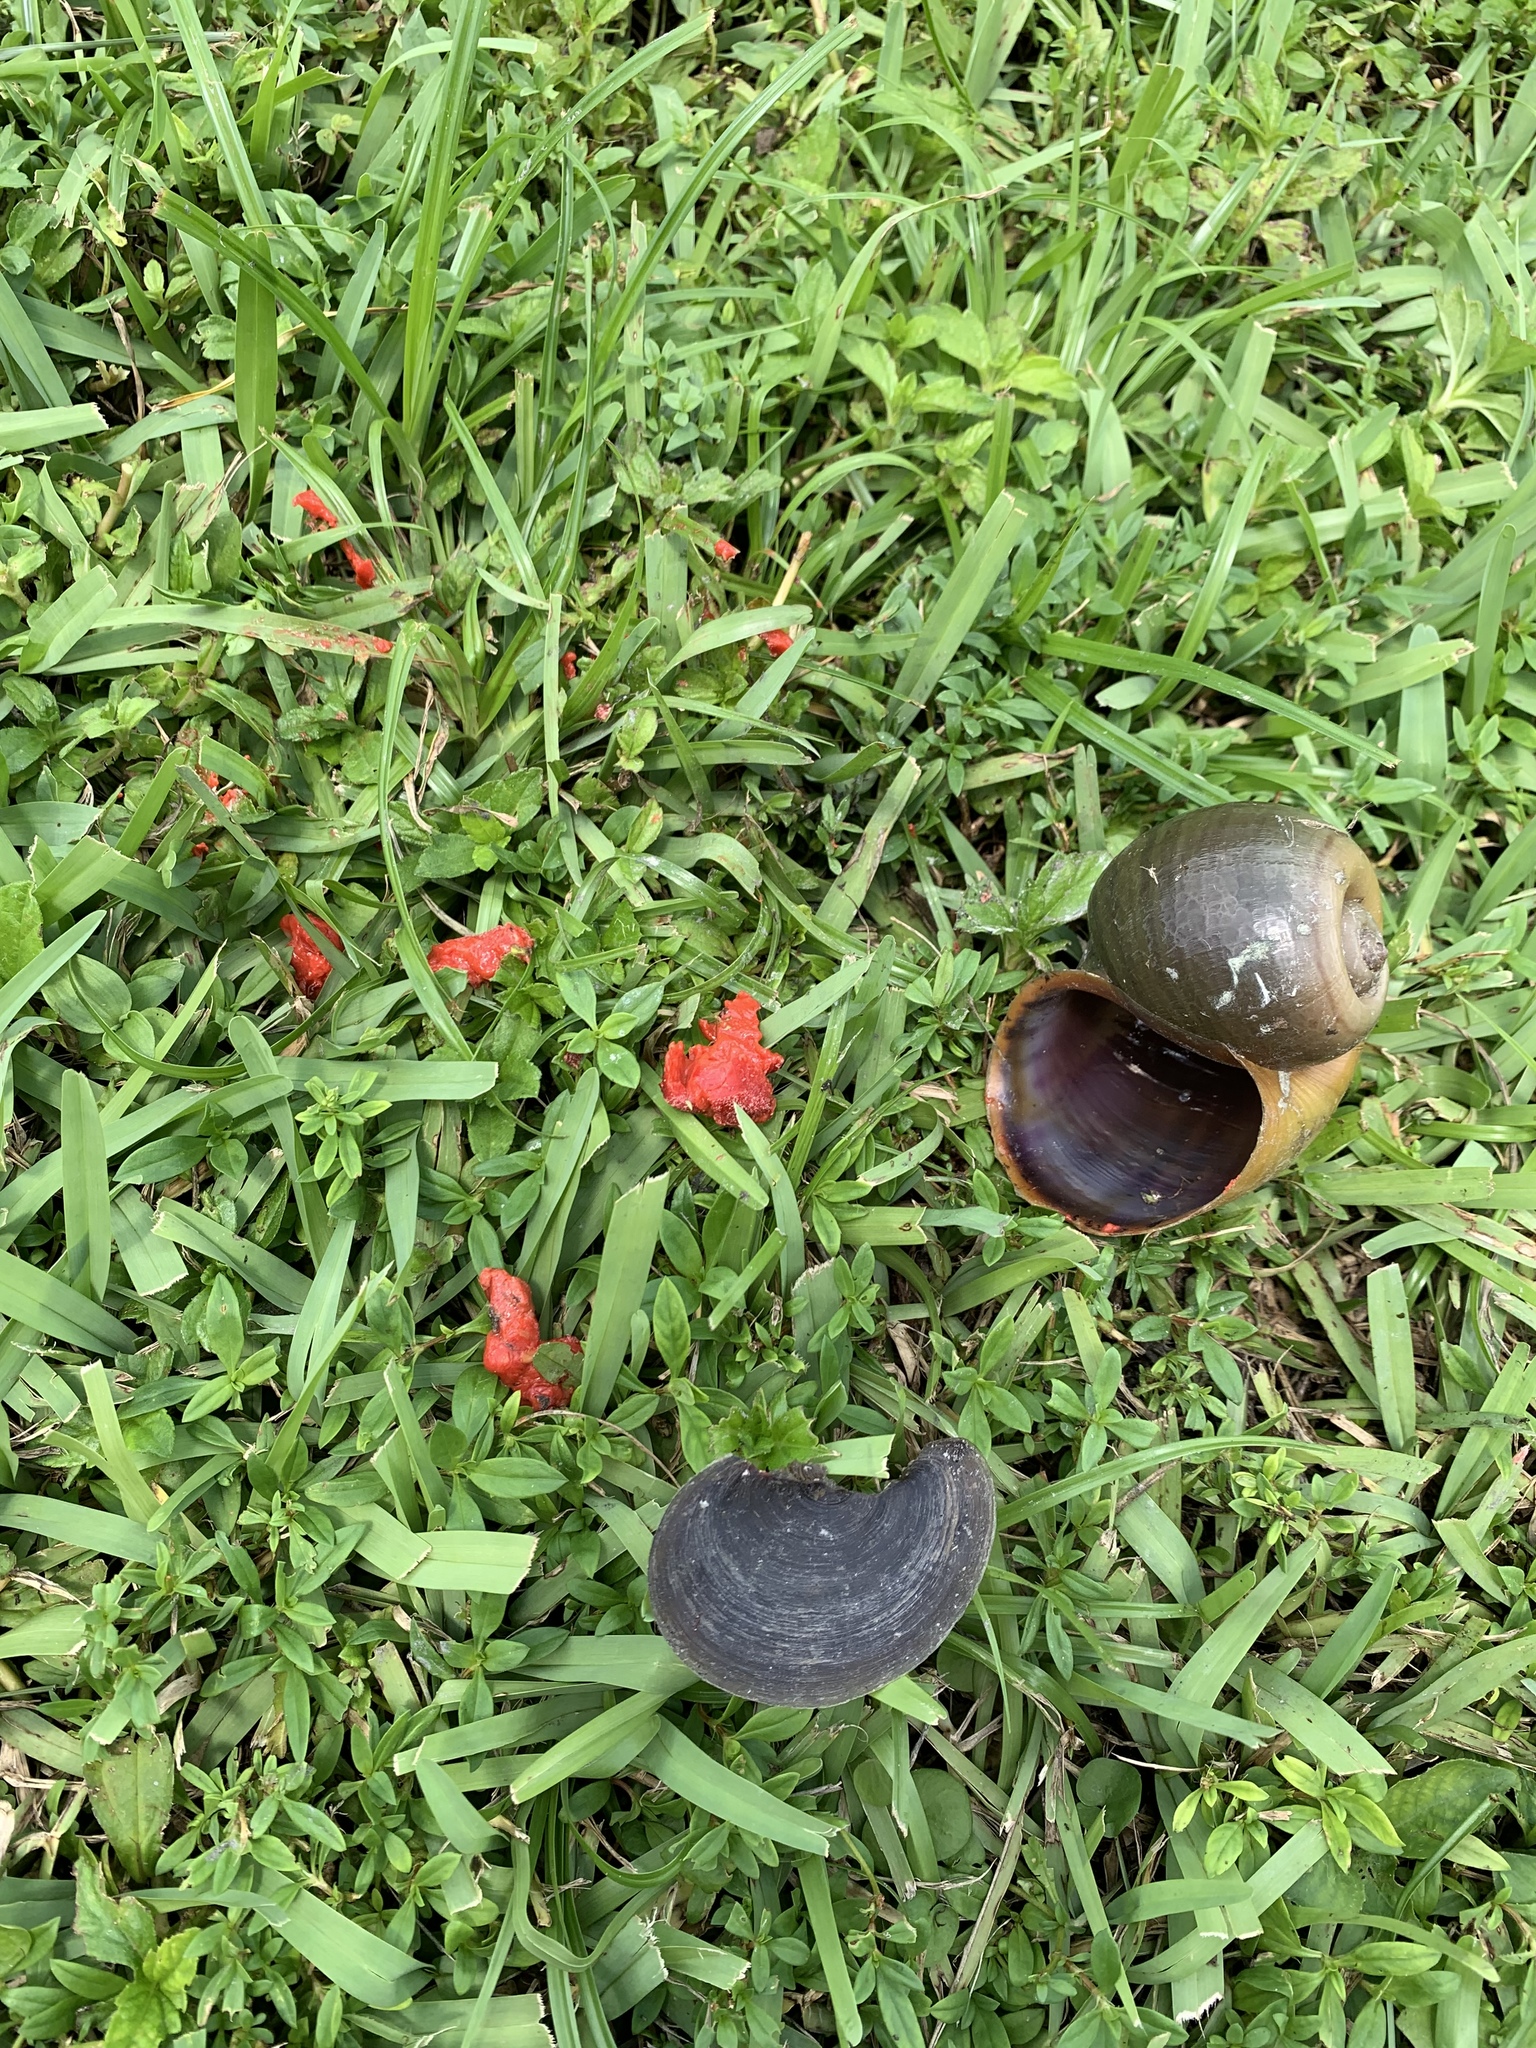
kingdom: Animalia
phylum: Mollusca
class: Gastropoda
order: Architaenioglossa
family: Ampullariidae
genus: Pomacea
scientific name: Pomacea maculata
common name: Giant applesnail
